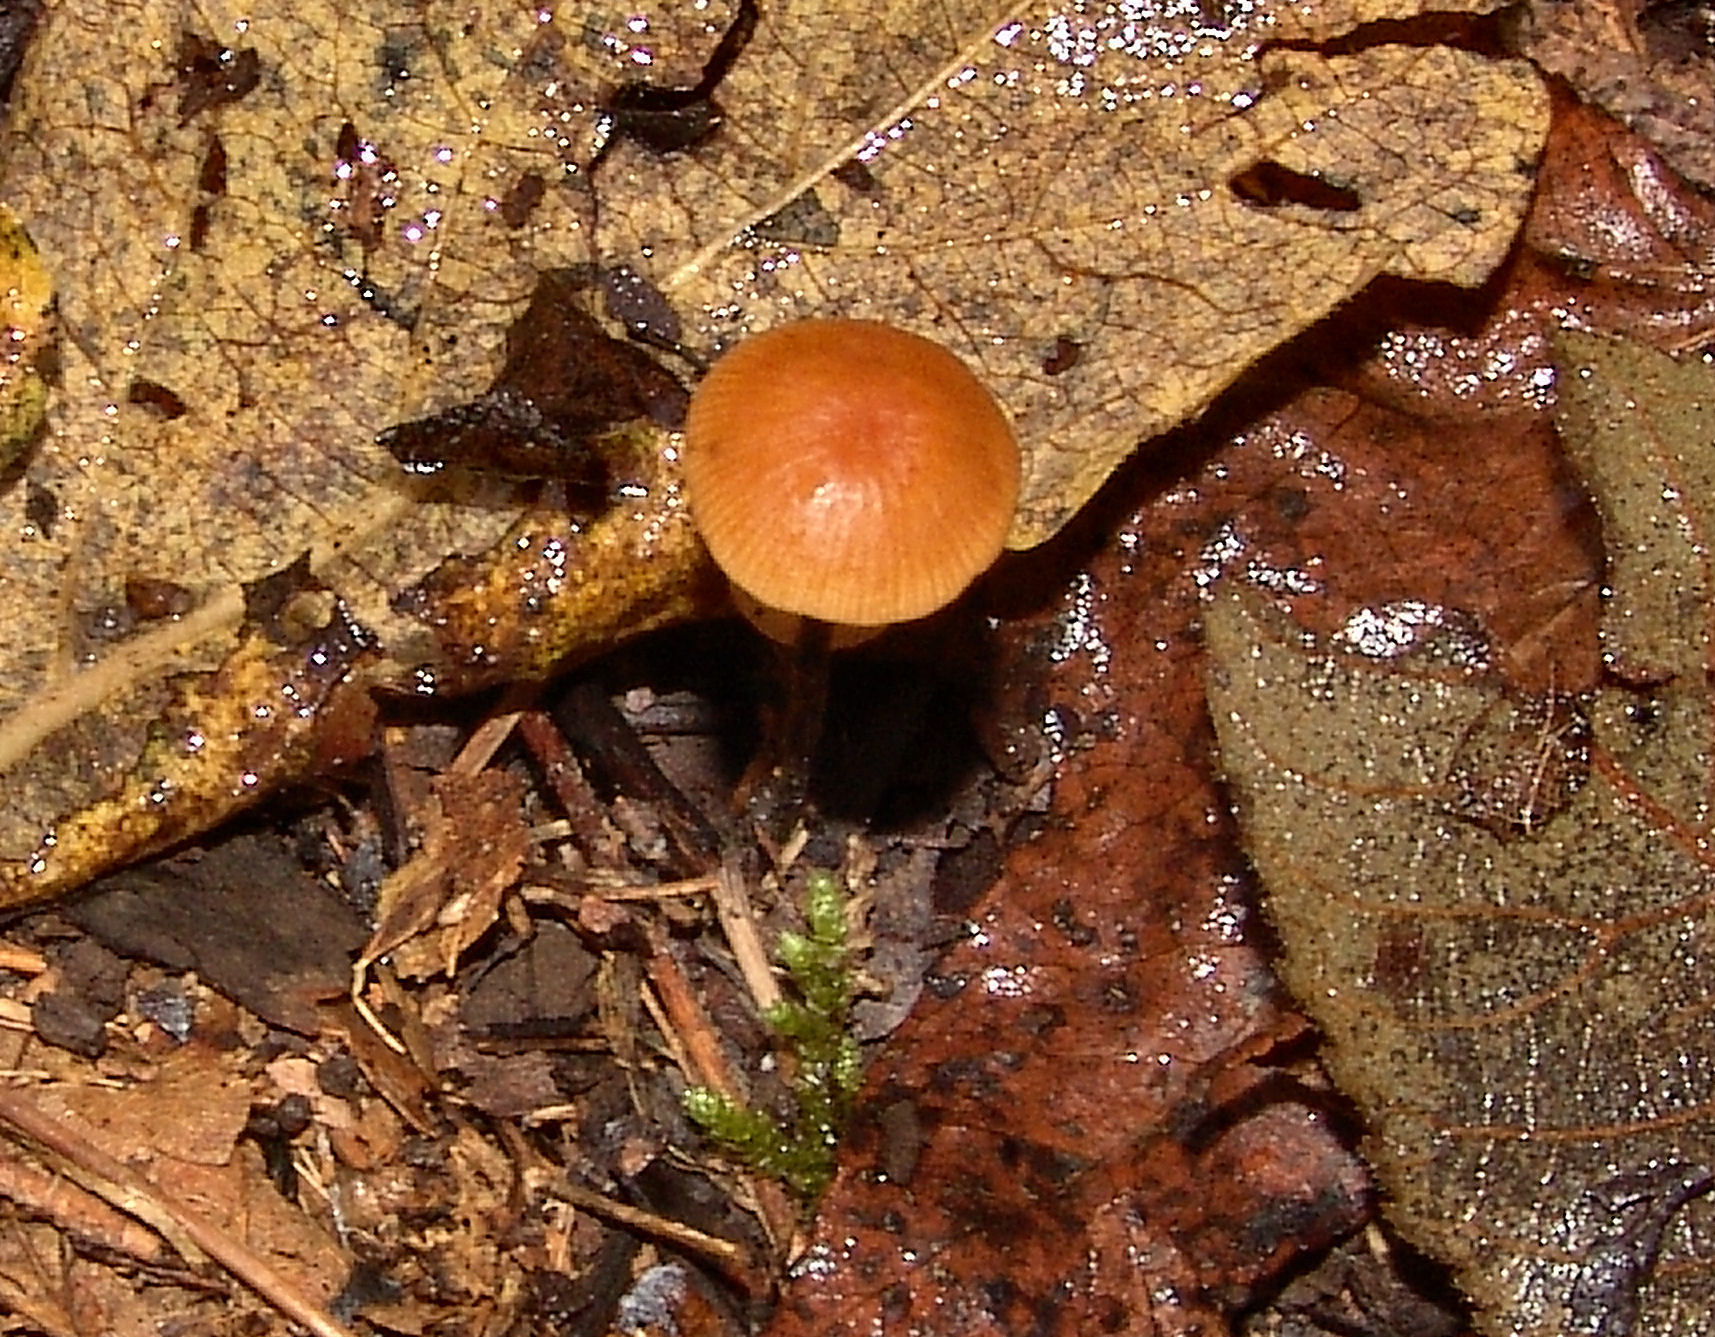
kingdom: Fungi
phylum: Basidiomycota
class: Agaricomycetes
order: Agaricales
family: Physalacriaceae
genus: Rhizomarasmius
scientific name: Rhizomarasmius pyrrhocephalus
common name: Hairy long stem marasmius
